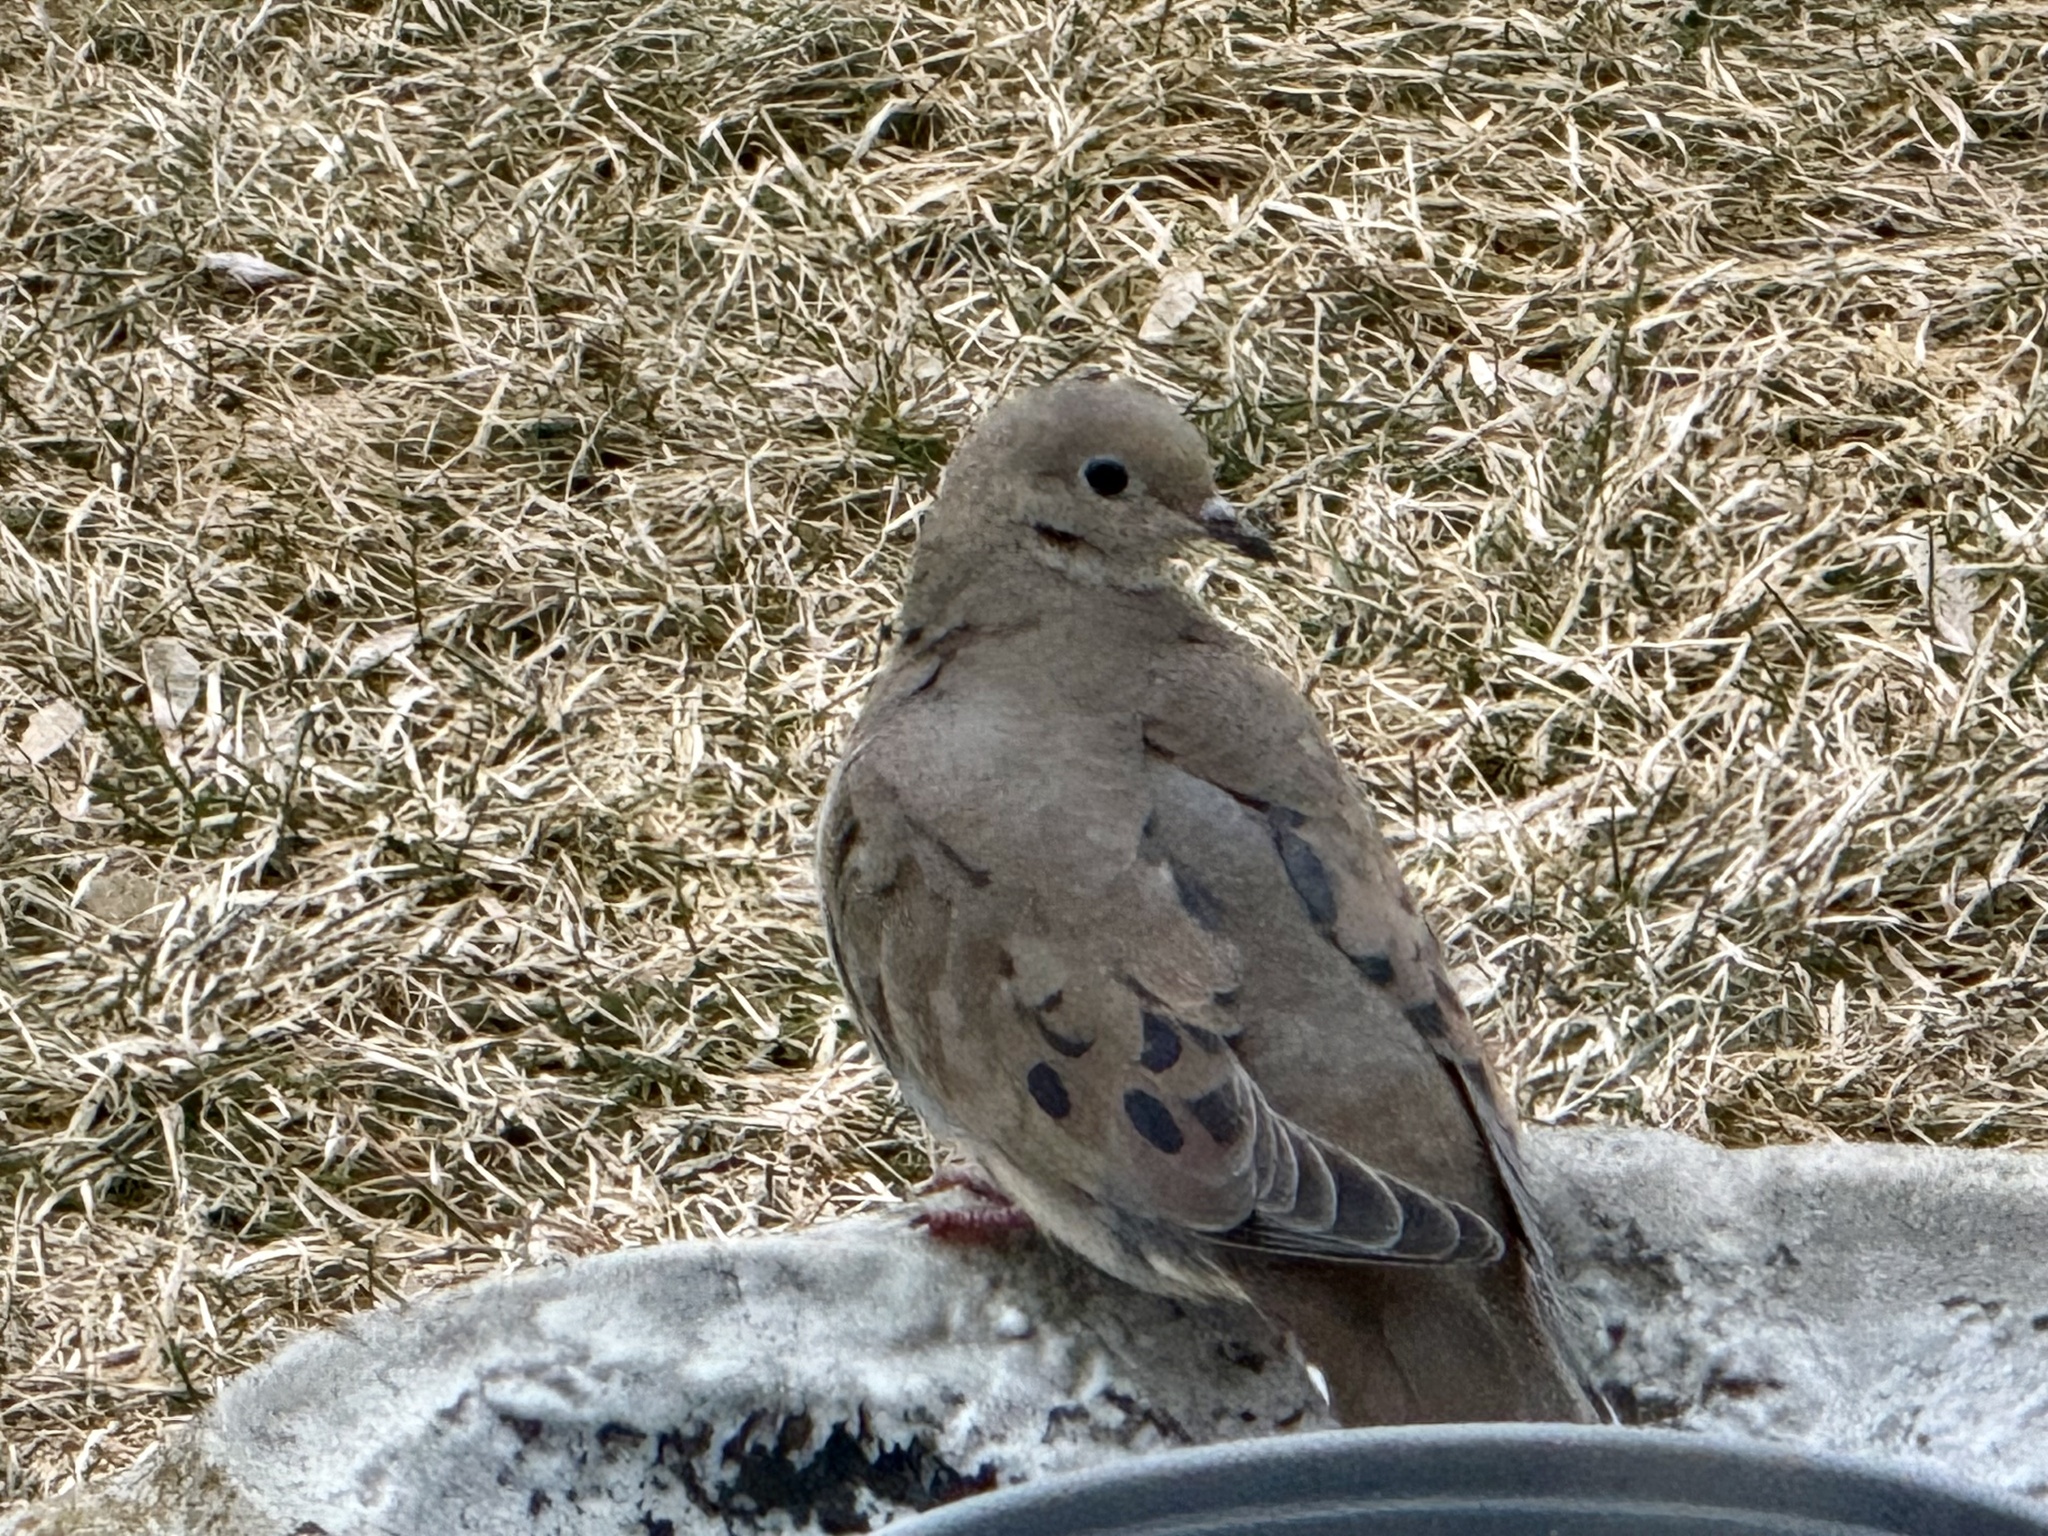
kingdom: Animalia
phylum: Chordata
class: Aves
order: Columbiformes
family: Columbidae
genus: Zenaida
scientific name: Zenaida macroura
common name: Mourning dove
